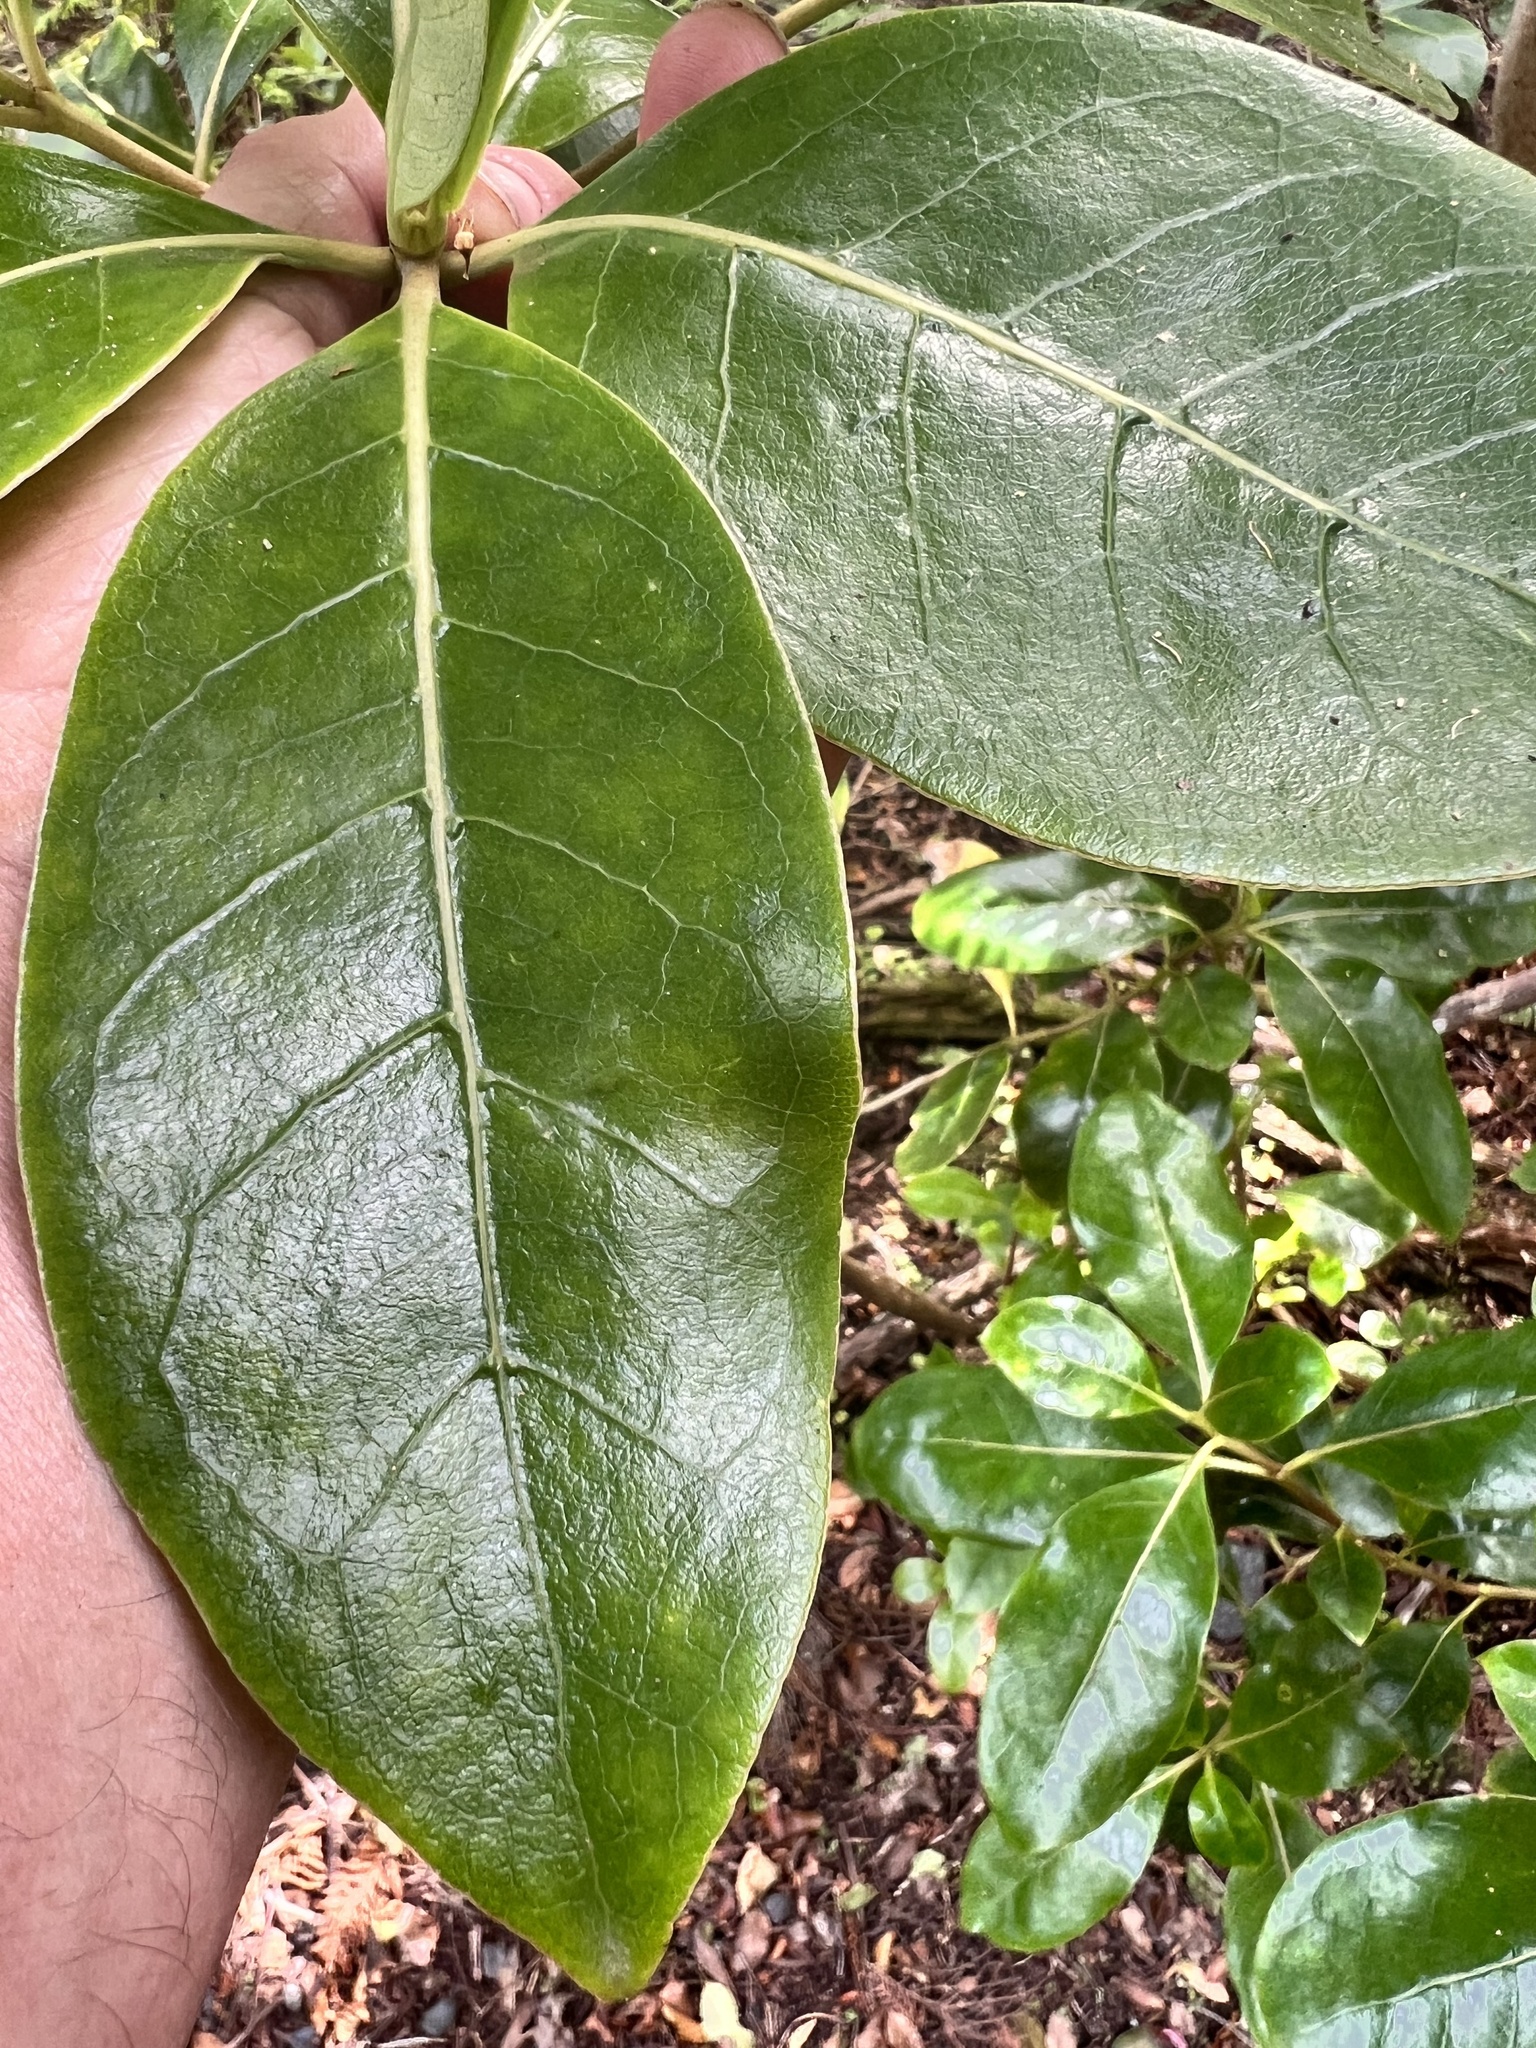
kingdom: Plantae
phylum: Tracheophyta
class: Magnoliopsida
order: Gentianales
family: Rubiaceae
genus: Coprosma
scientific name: Coprosma lucida
